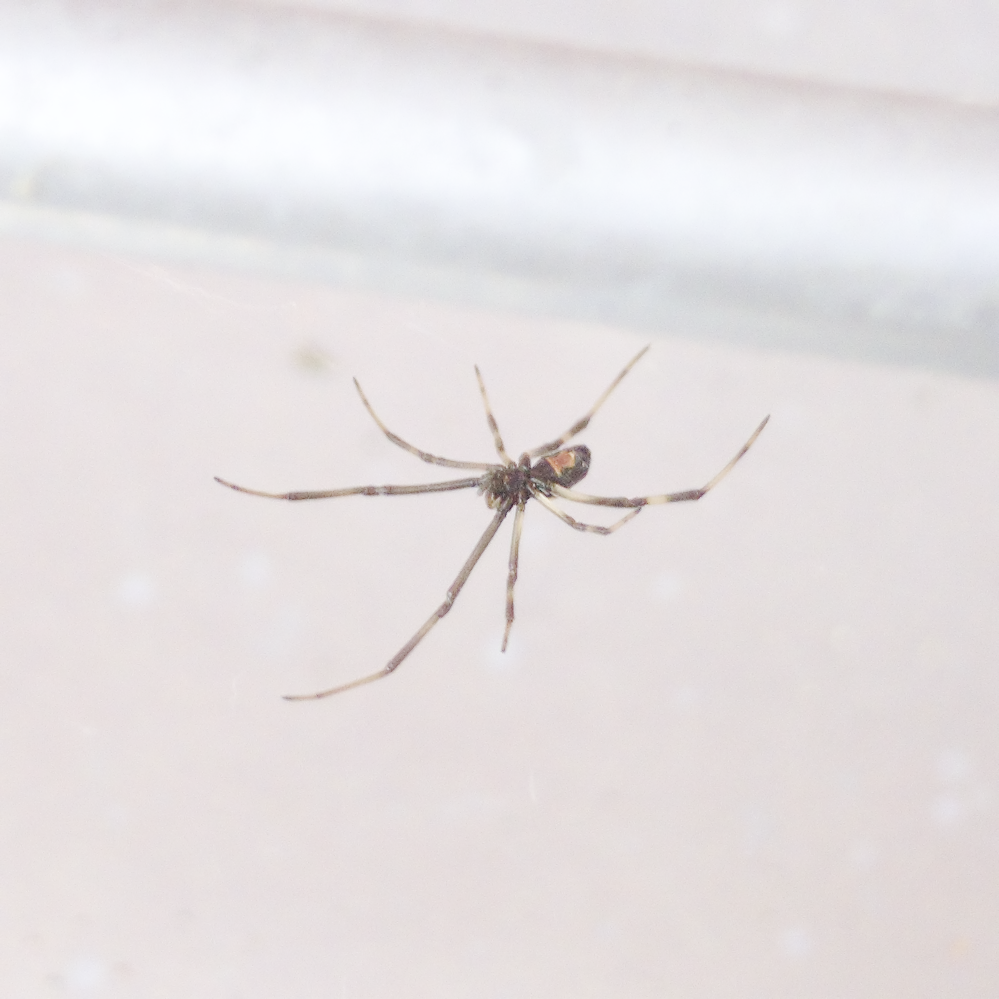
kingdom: Animalia
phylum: Arthropoda
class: Arachnida
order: Araneae
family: Theridiidae
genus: Latrodectus
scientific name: Latrodectus hasselti
